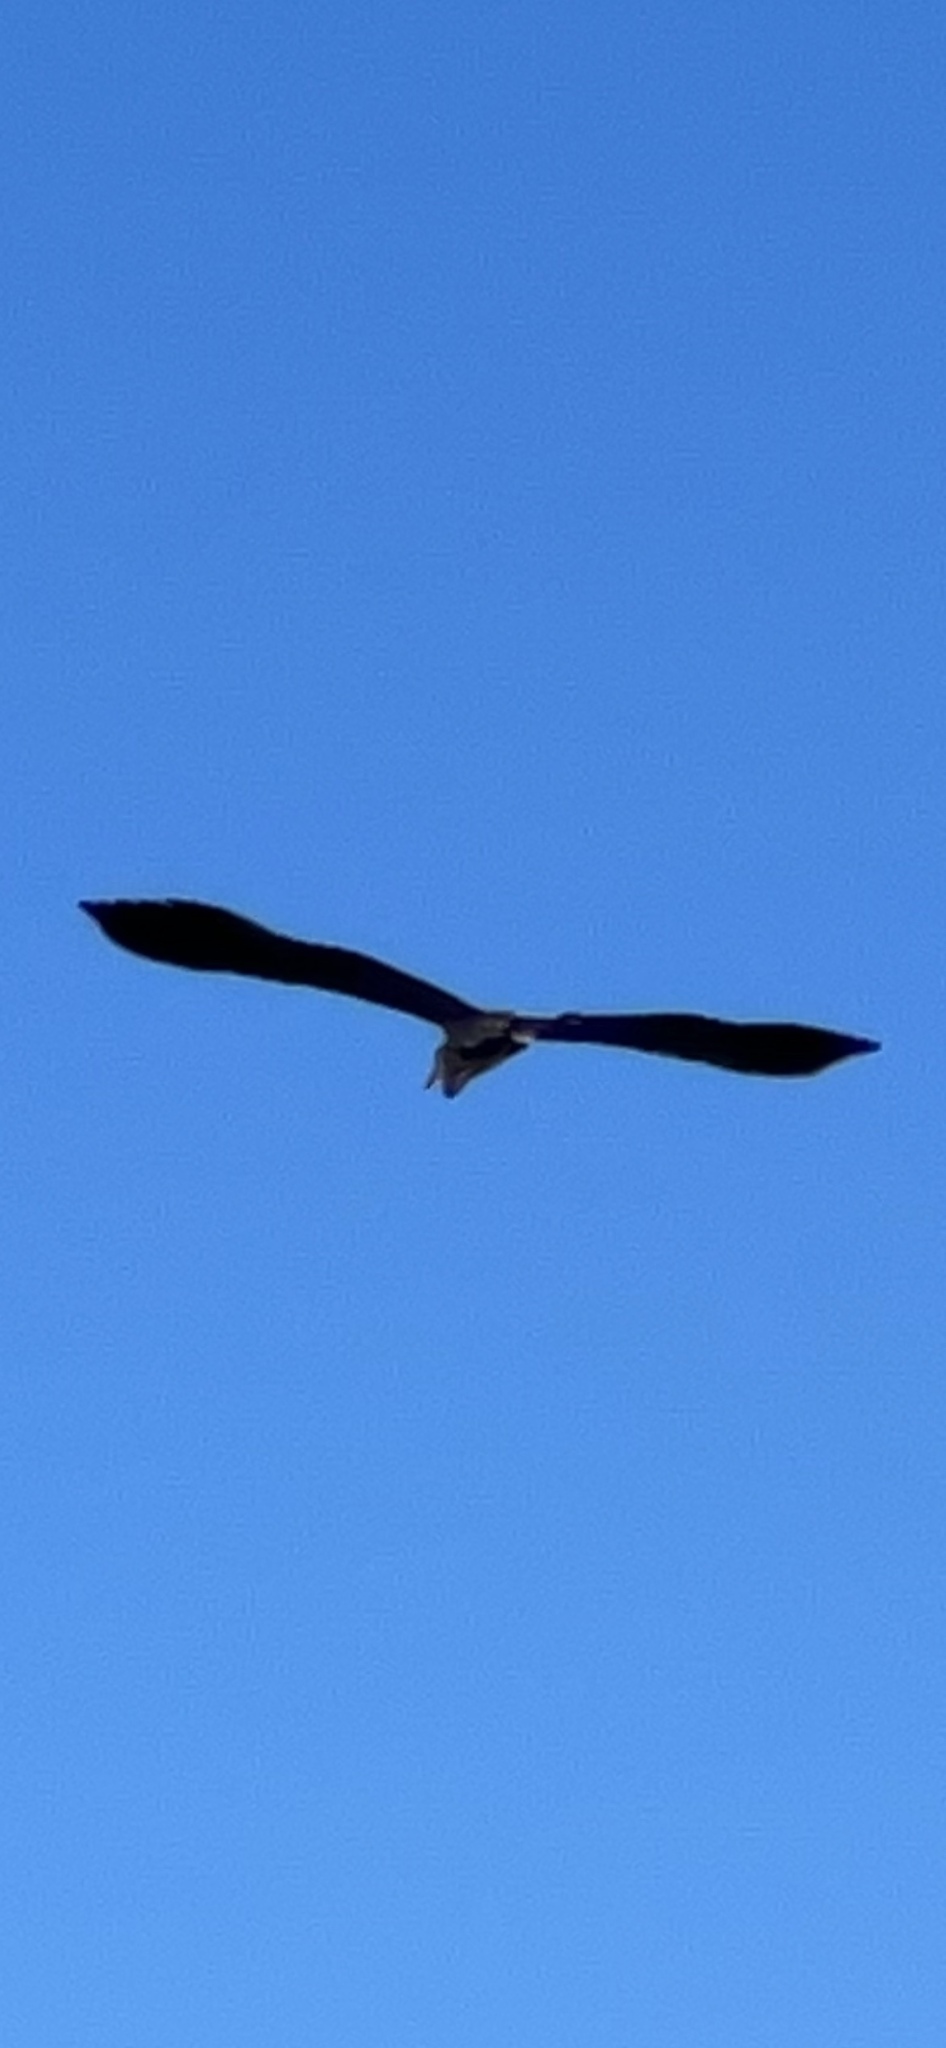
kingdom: Animalia
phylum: Chordata
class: Aves
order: Pelecaniformes
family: Ardeidae
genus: Ardea
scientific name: Ardea cinerea
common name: Grey heron
